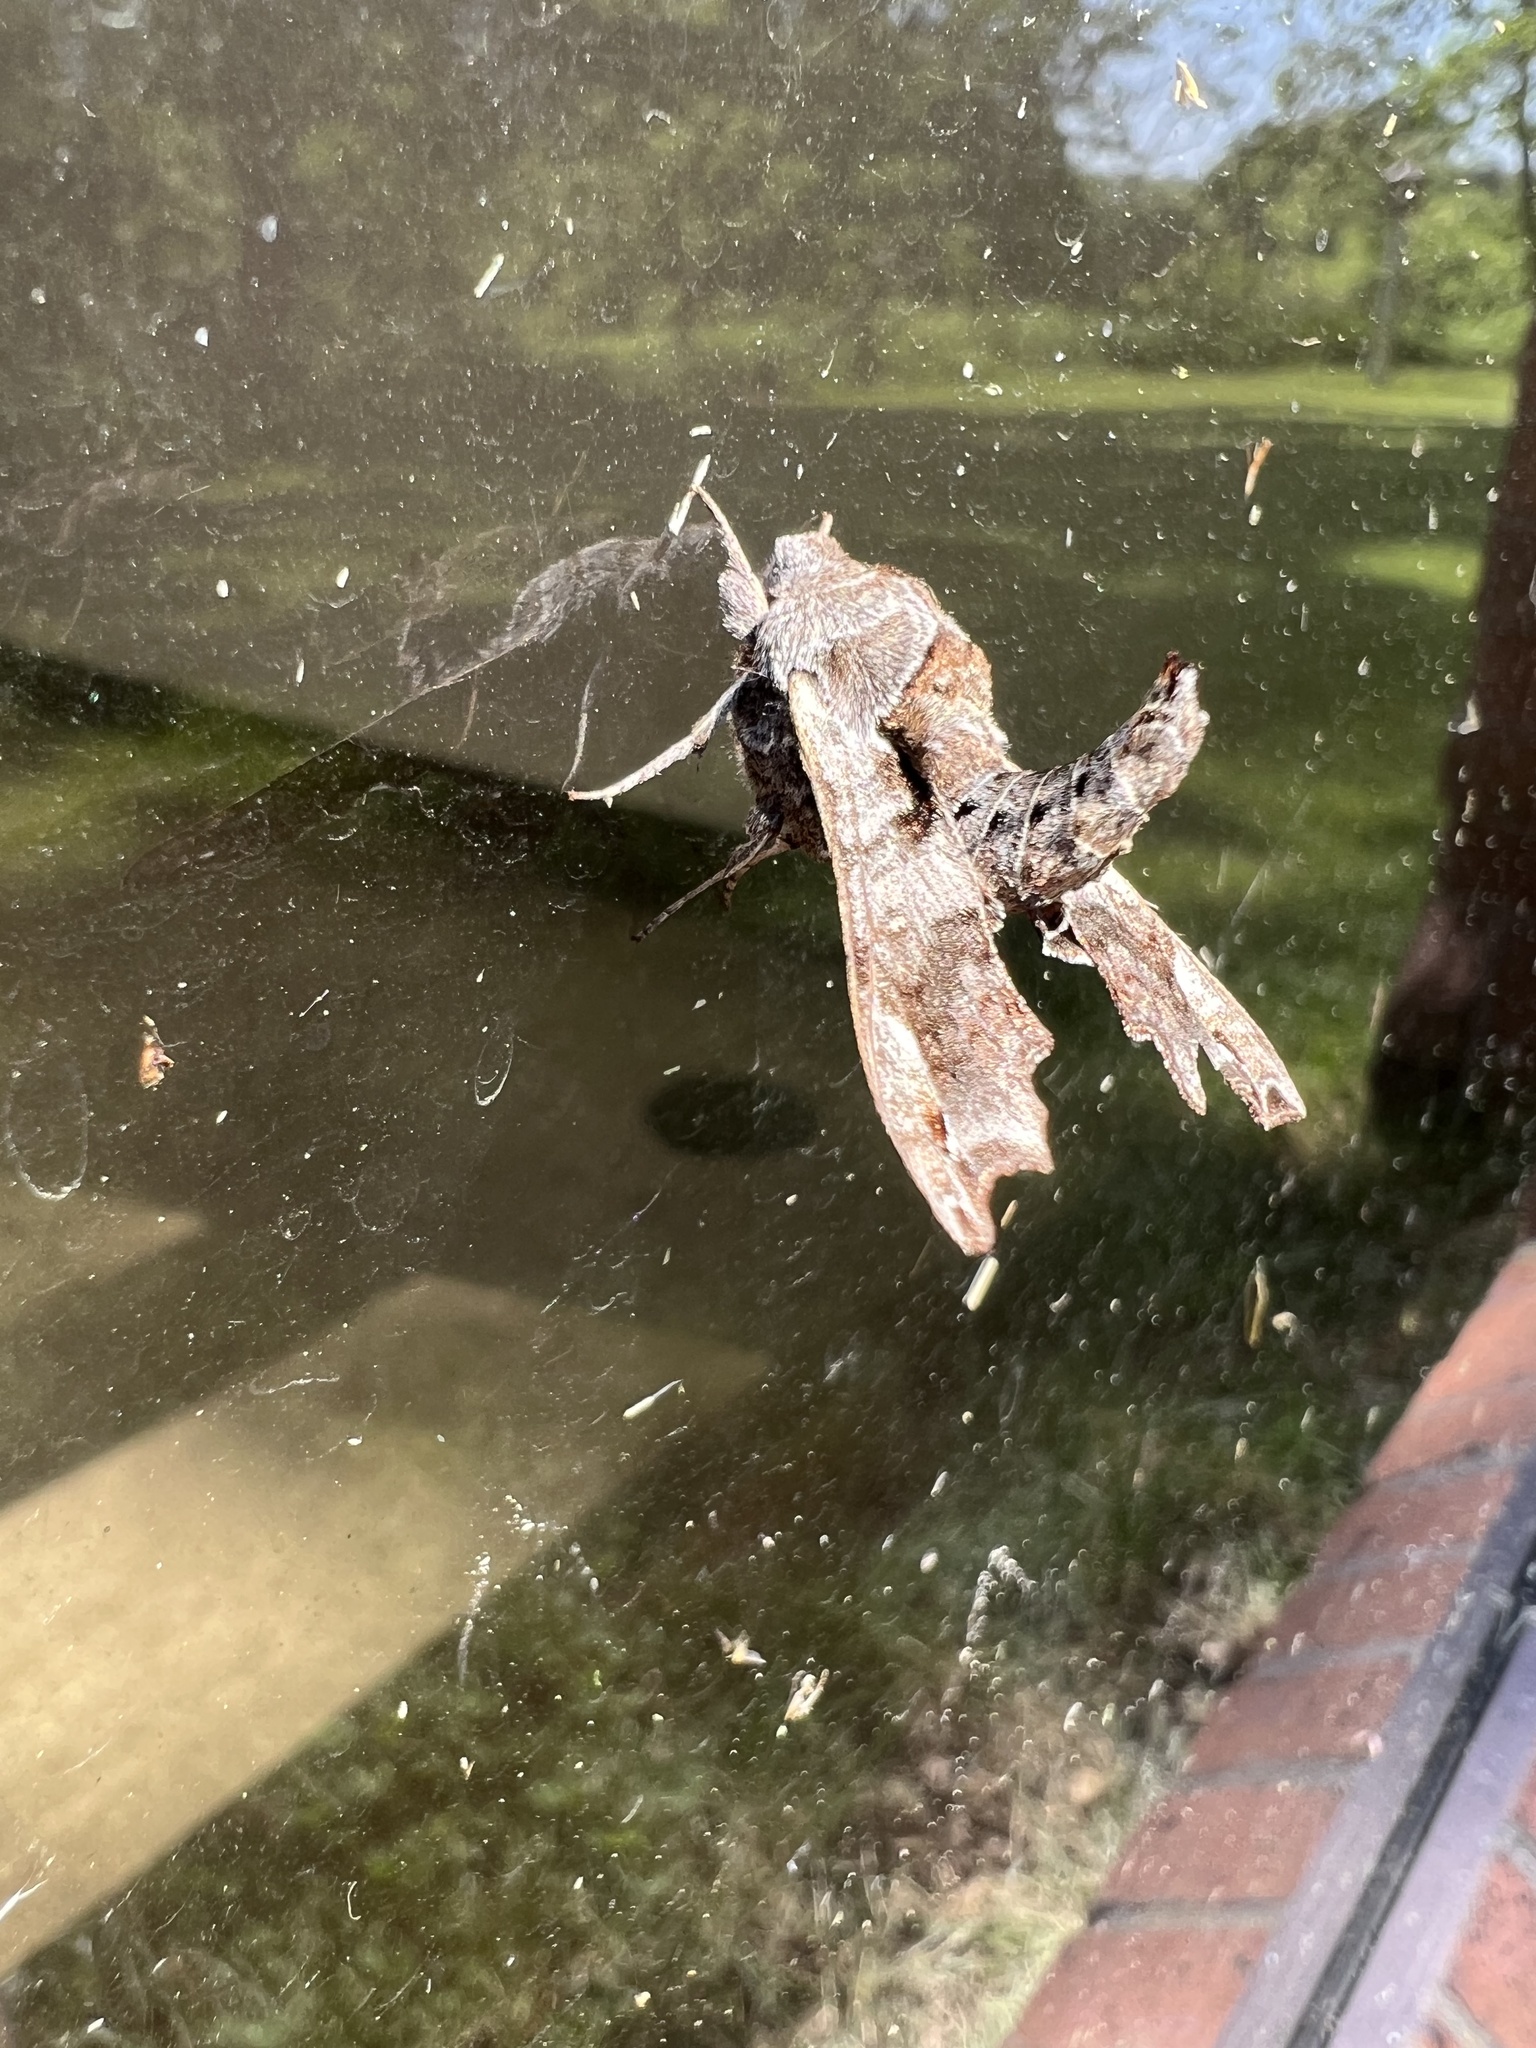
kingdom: Animalia
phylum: Arthropoda
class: Insecta
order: Lepidoptera
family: Sphingidae
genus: Deidamia
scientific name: Deidamia inscriptum
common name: Lettered sphinx
